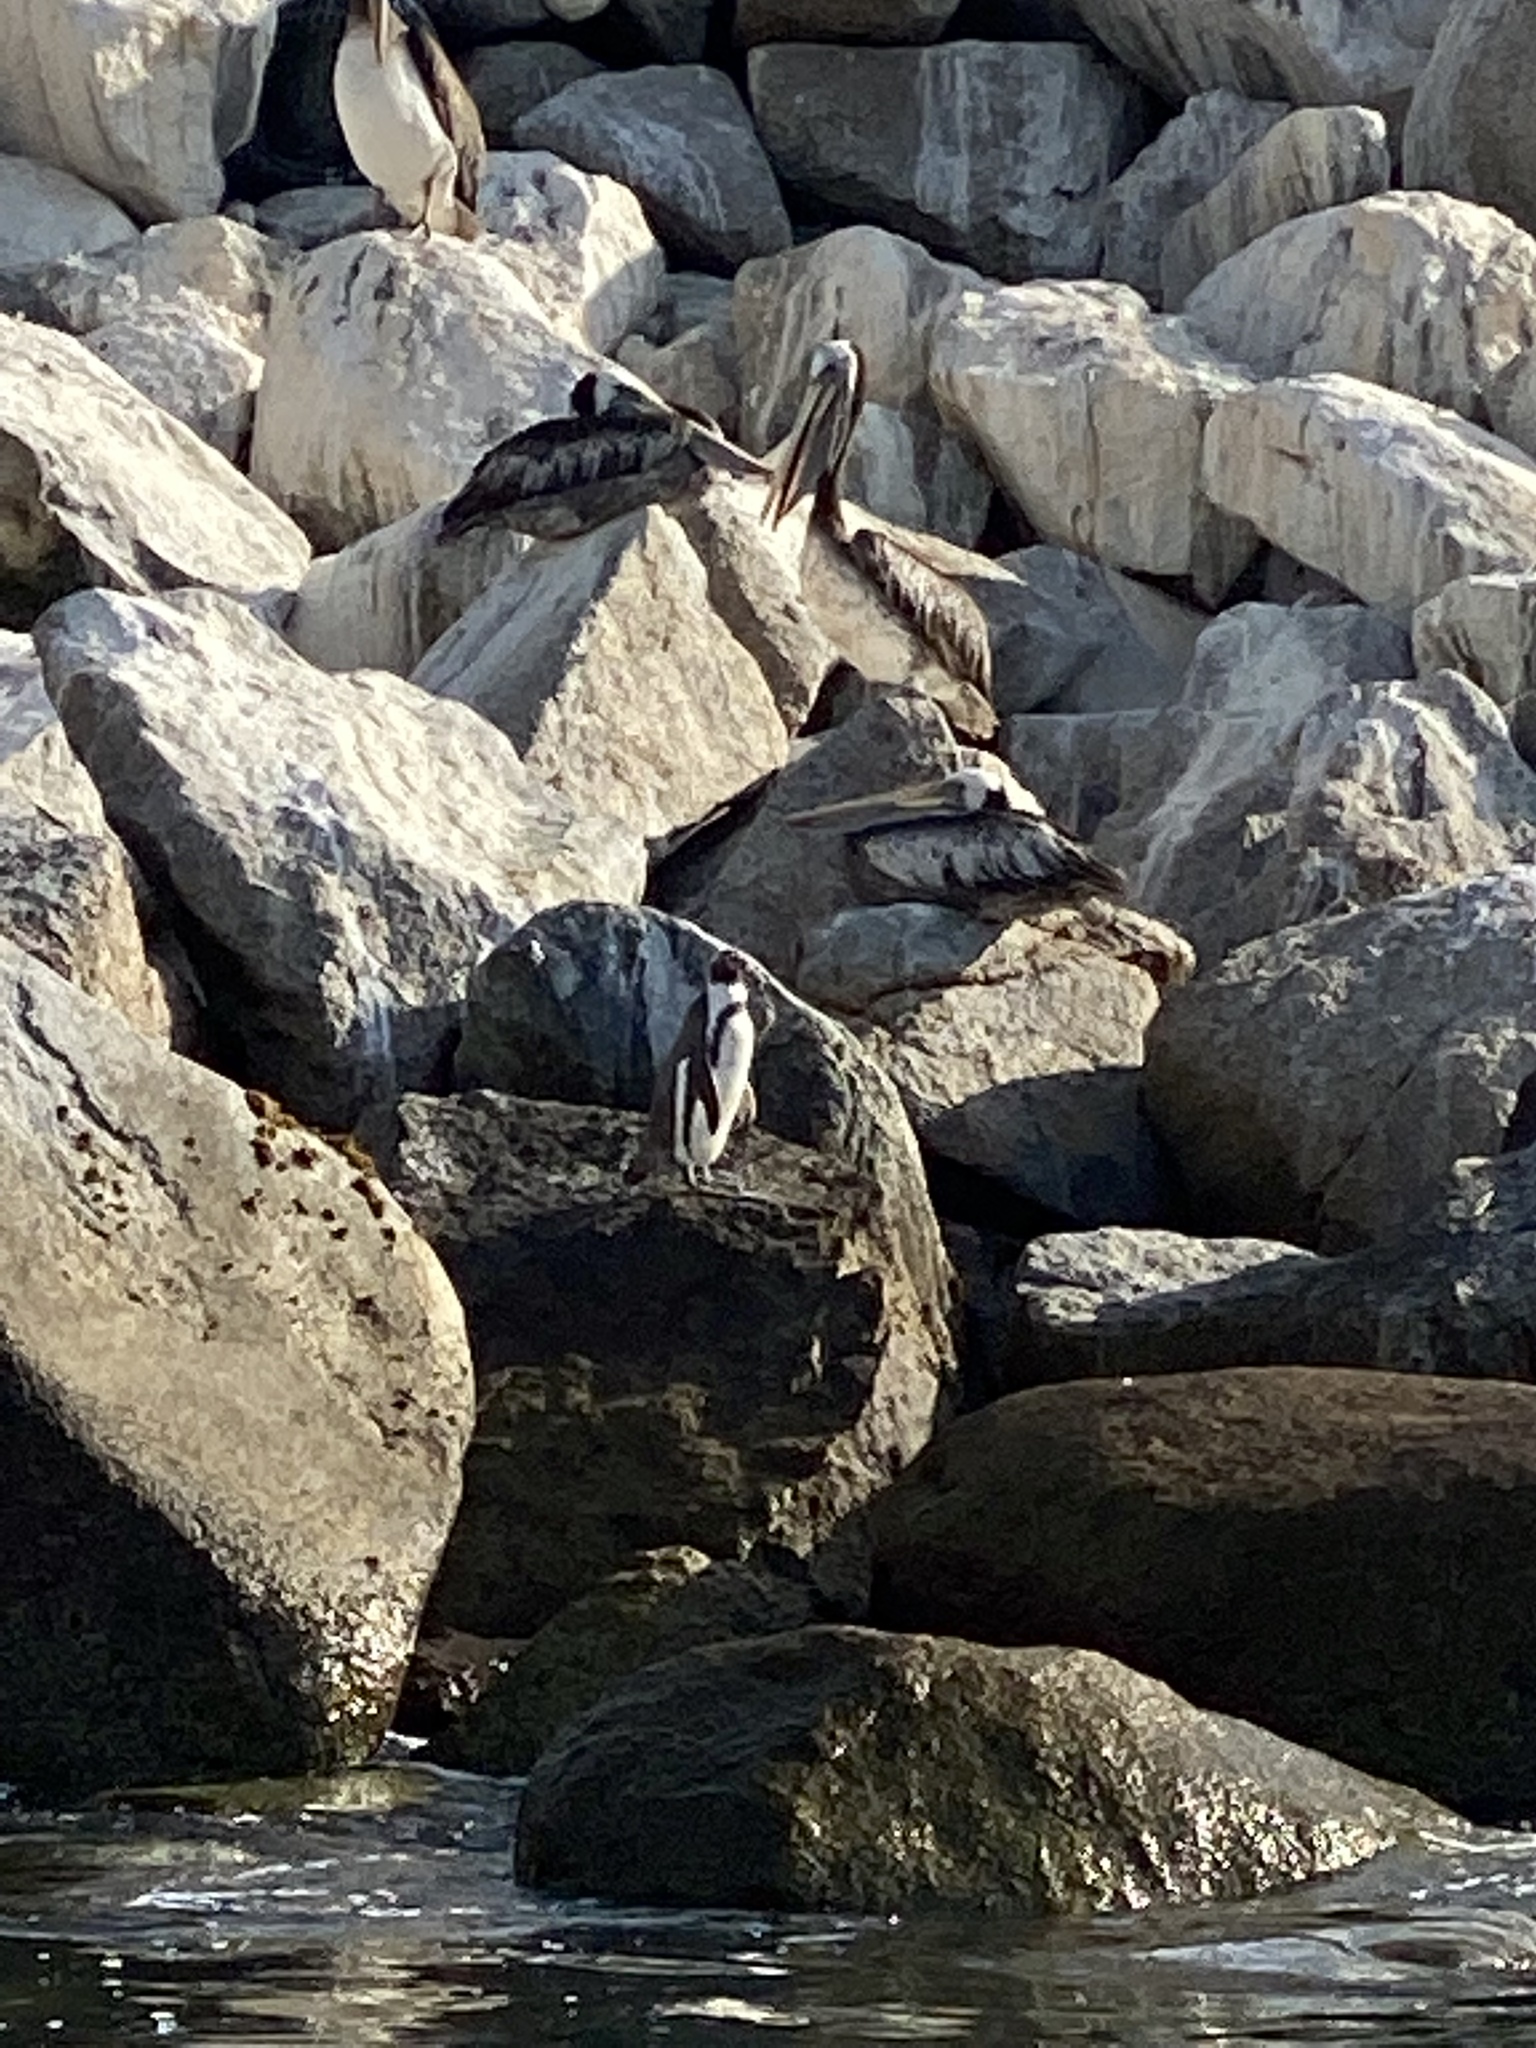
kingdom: Animalia
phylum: Chordata
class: Aves
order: Sphenisciformes
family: Spheniscidae
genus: Spheniscus
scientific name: Spheniscus humboldti
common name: Humboldt penguin
